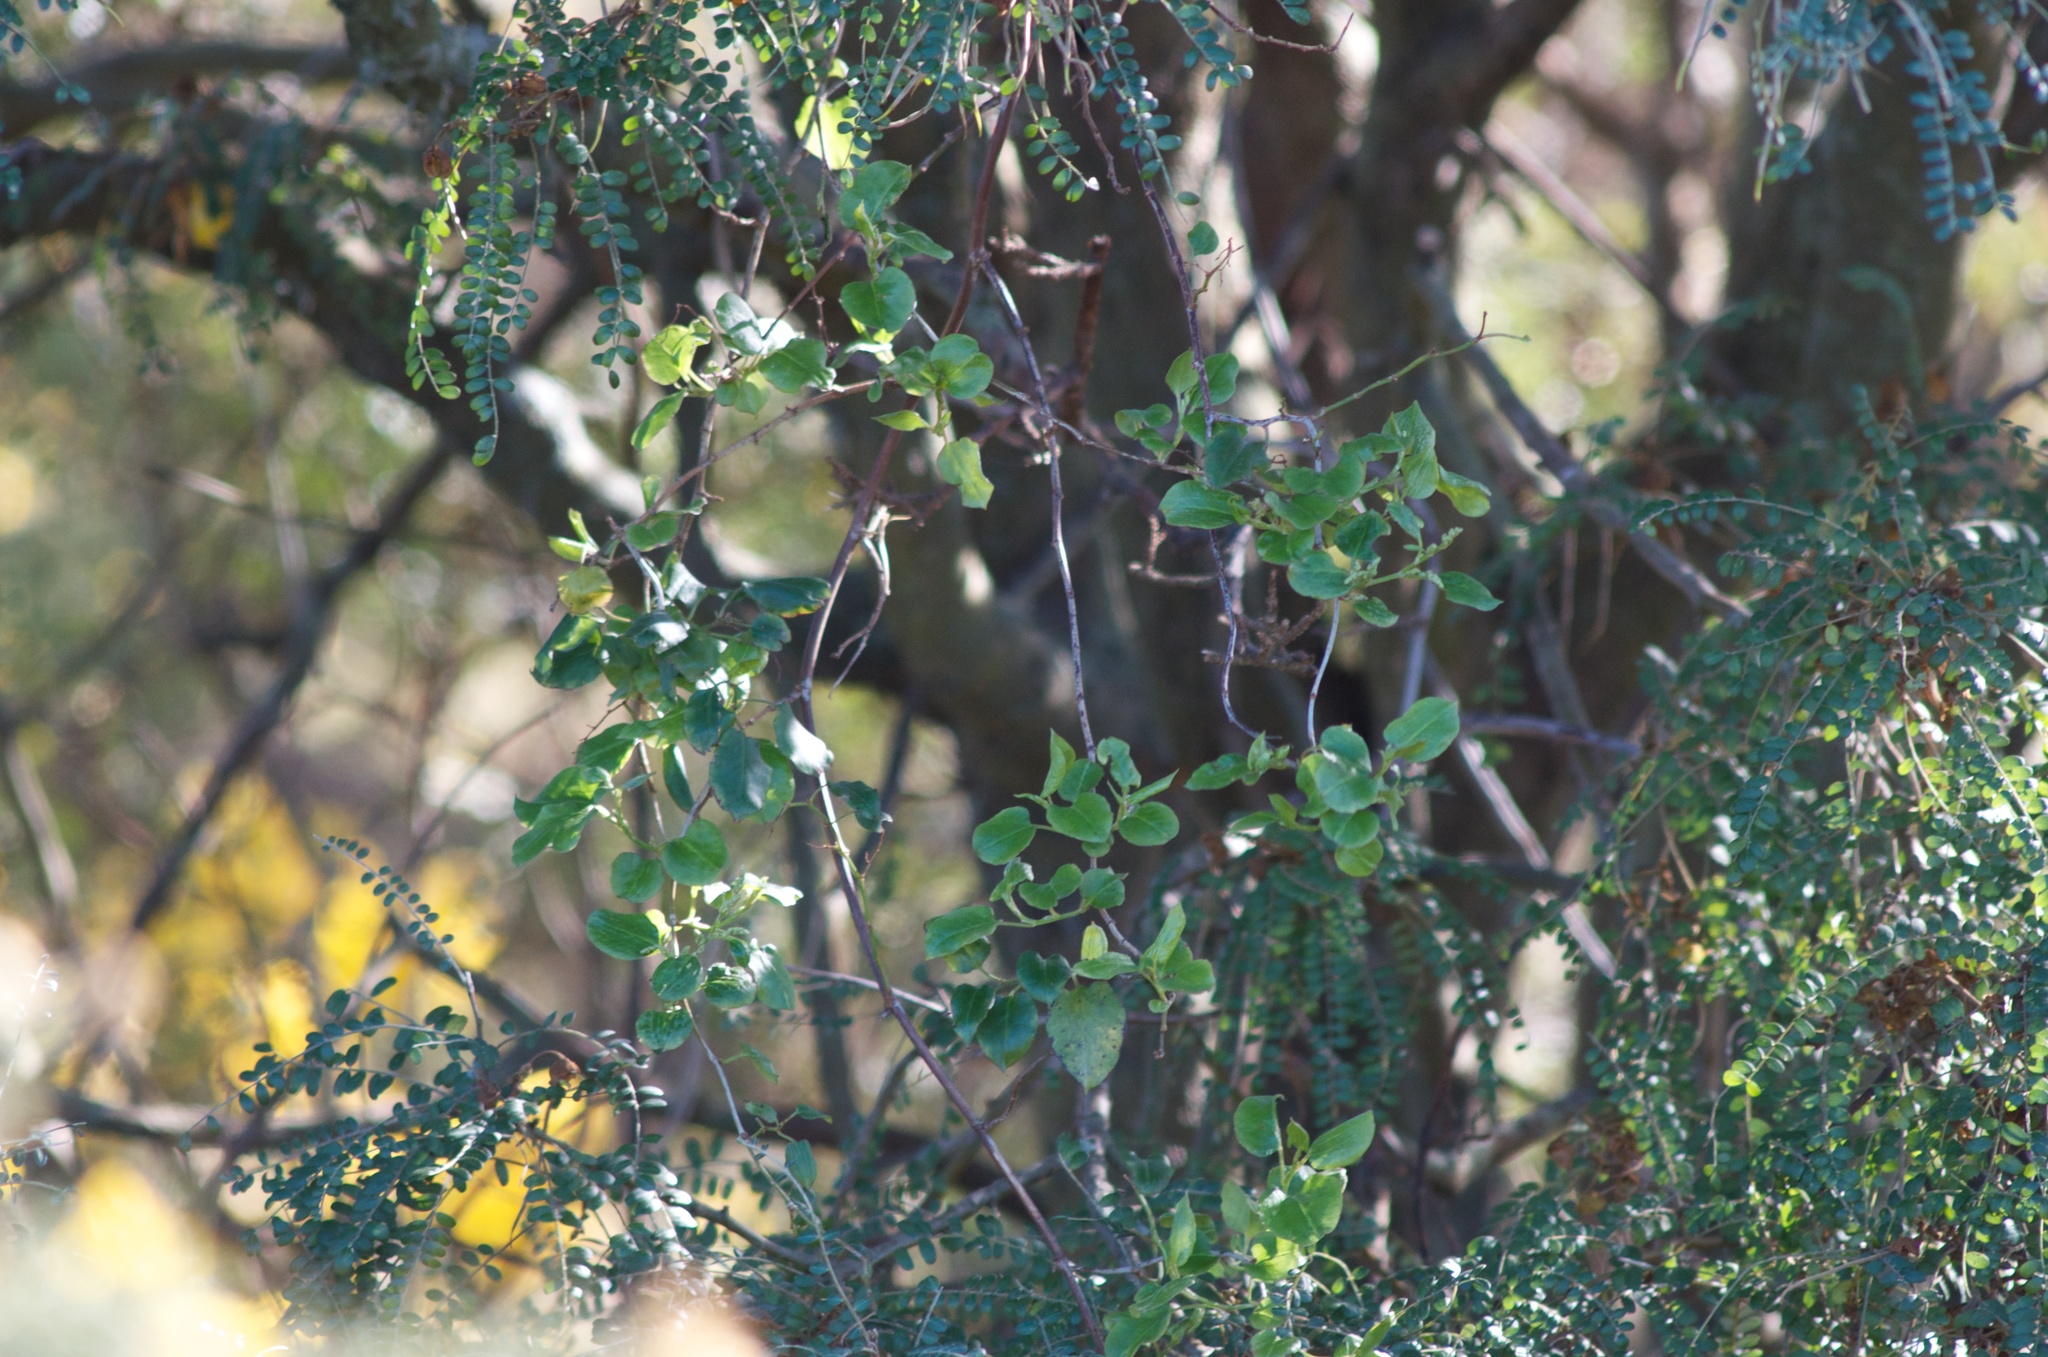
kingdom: Plantae
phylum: Tracheophyta
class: Magnoliopsida
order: Caryophyllales
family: Polygonaceae
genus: Muehlenbeckia
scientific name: Muehlenbeckia australis
